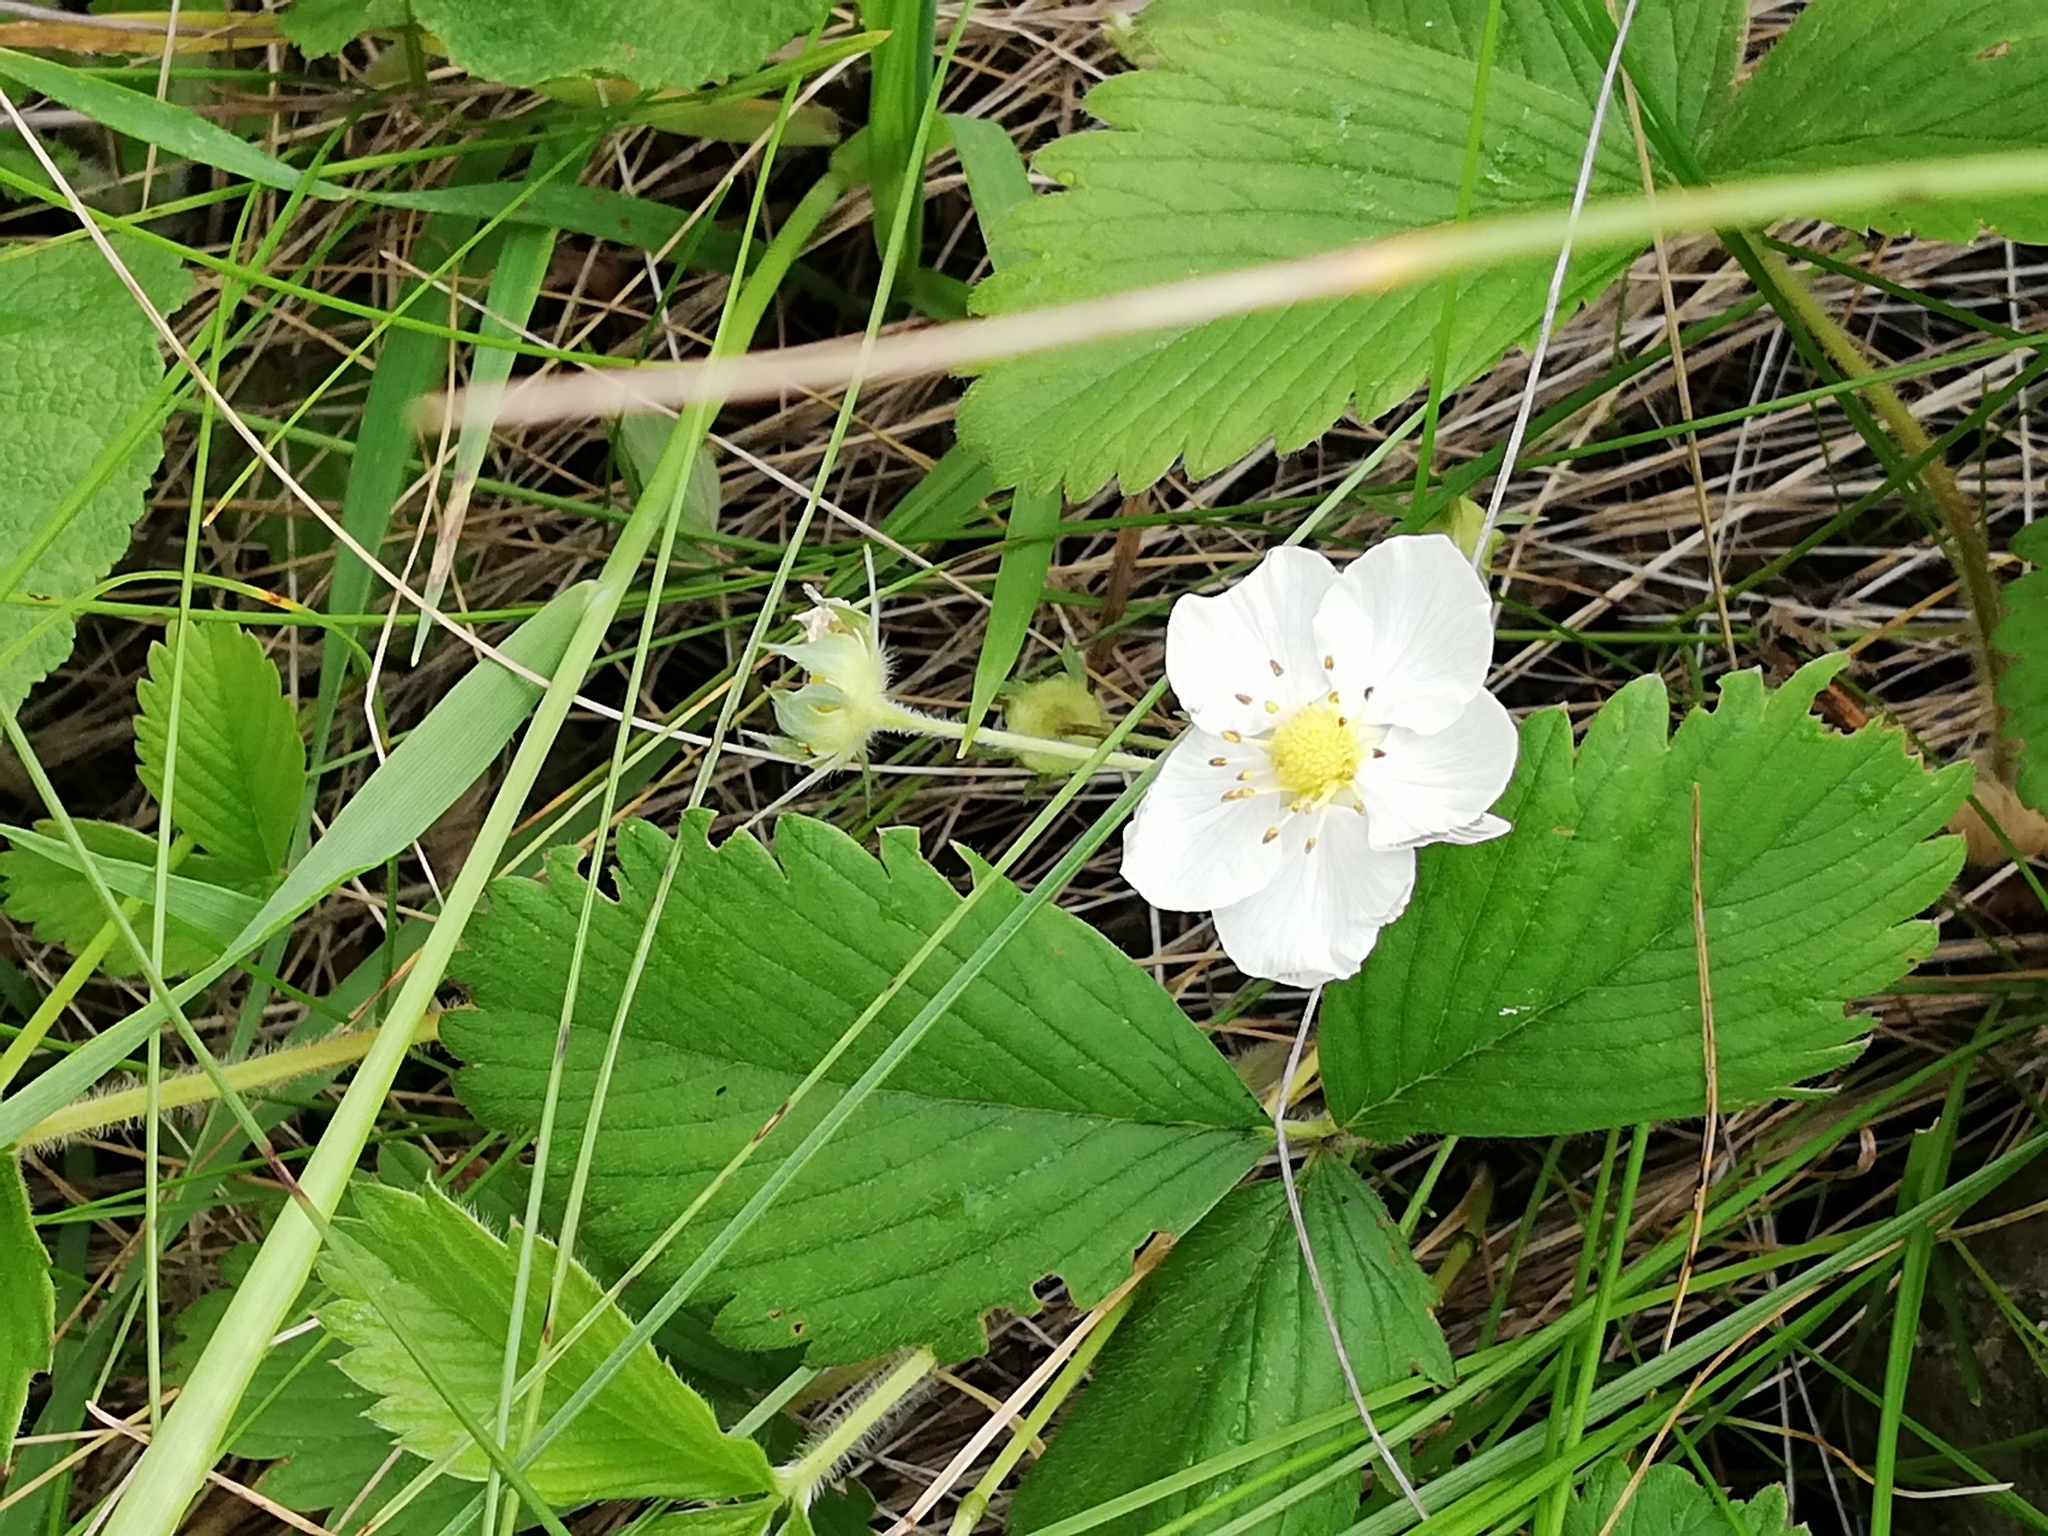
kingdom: Plantae
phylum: Tracheophyta
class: Magnoliopsida
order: Rosales
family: Rosaceae
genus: Fragaria
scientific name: Fragaria viridis
